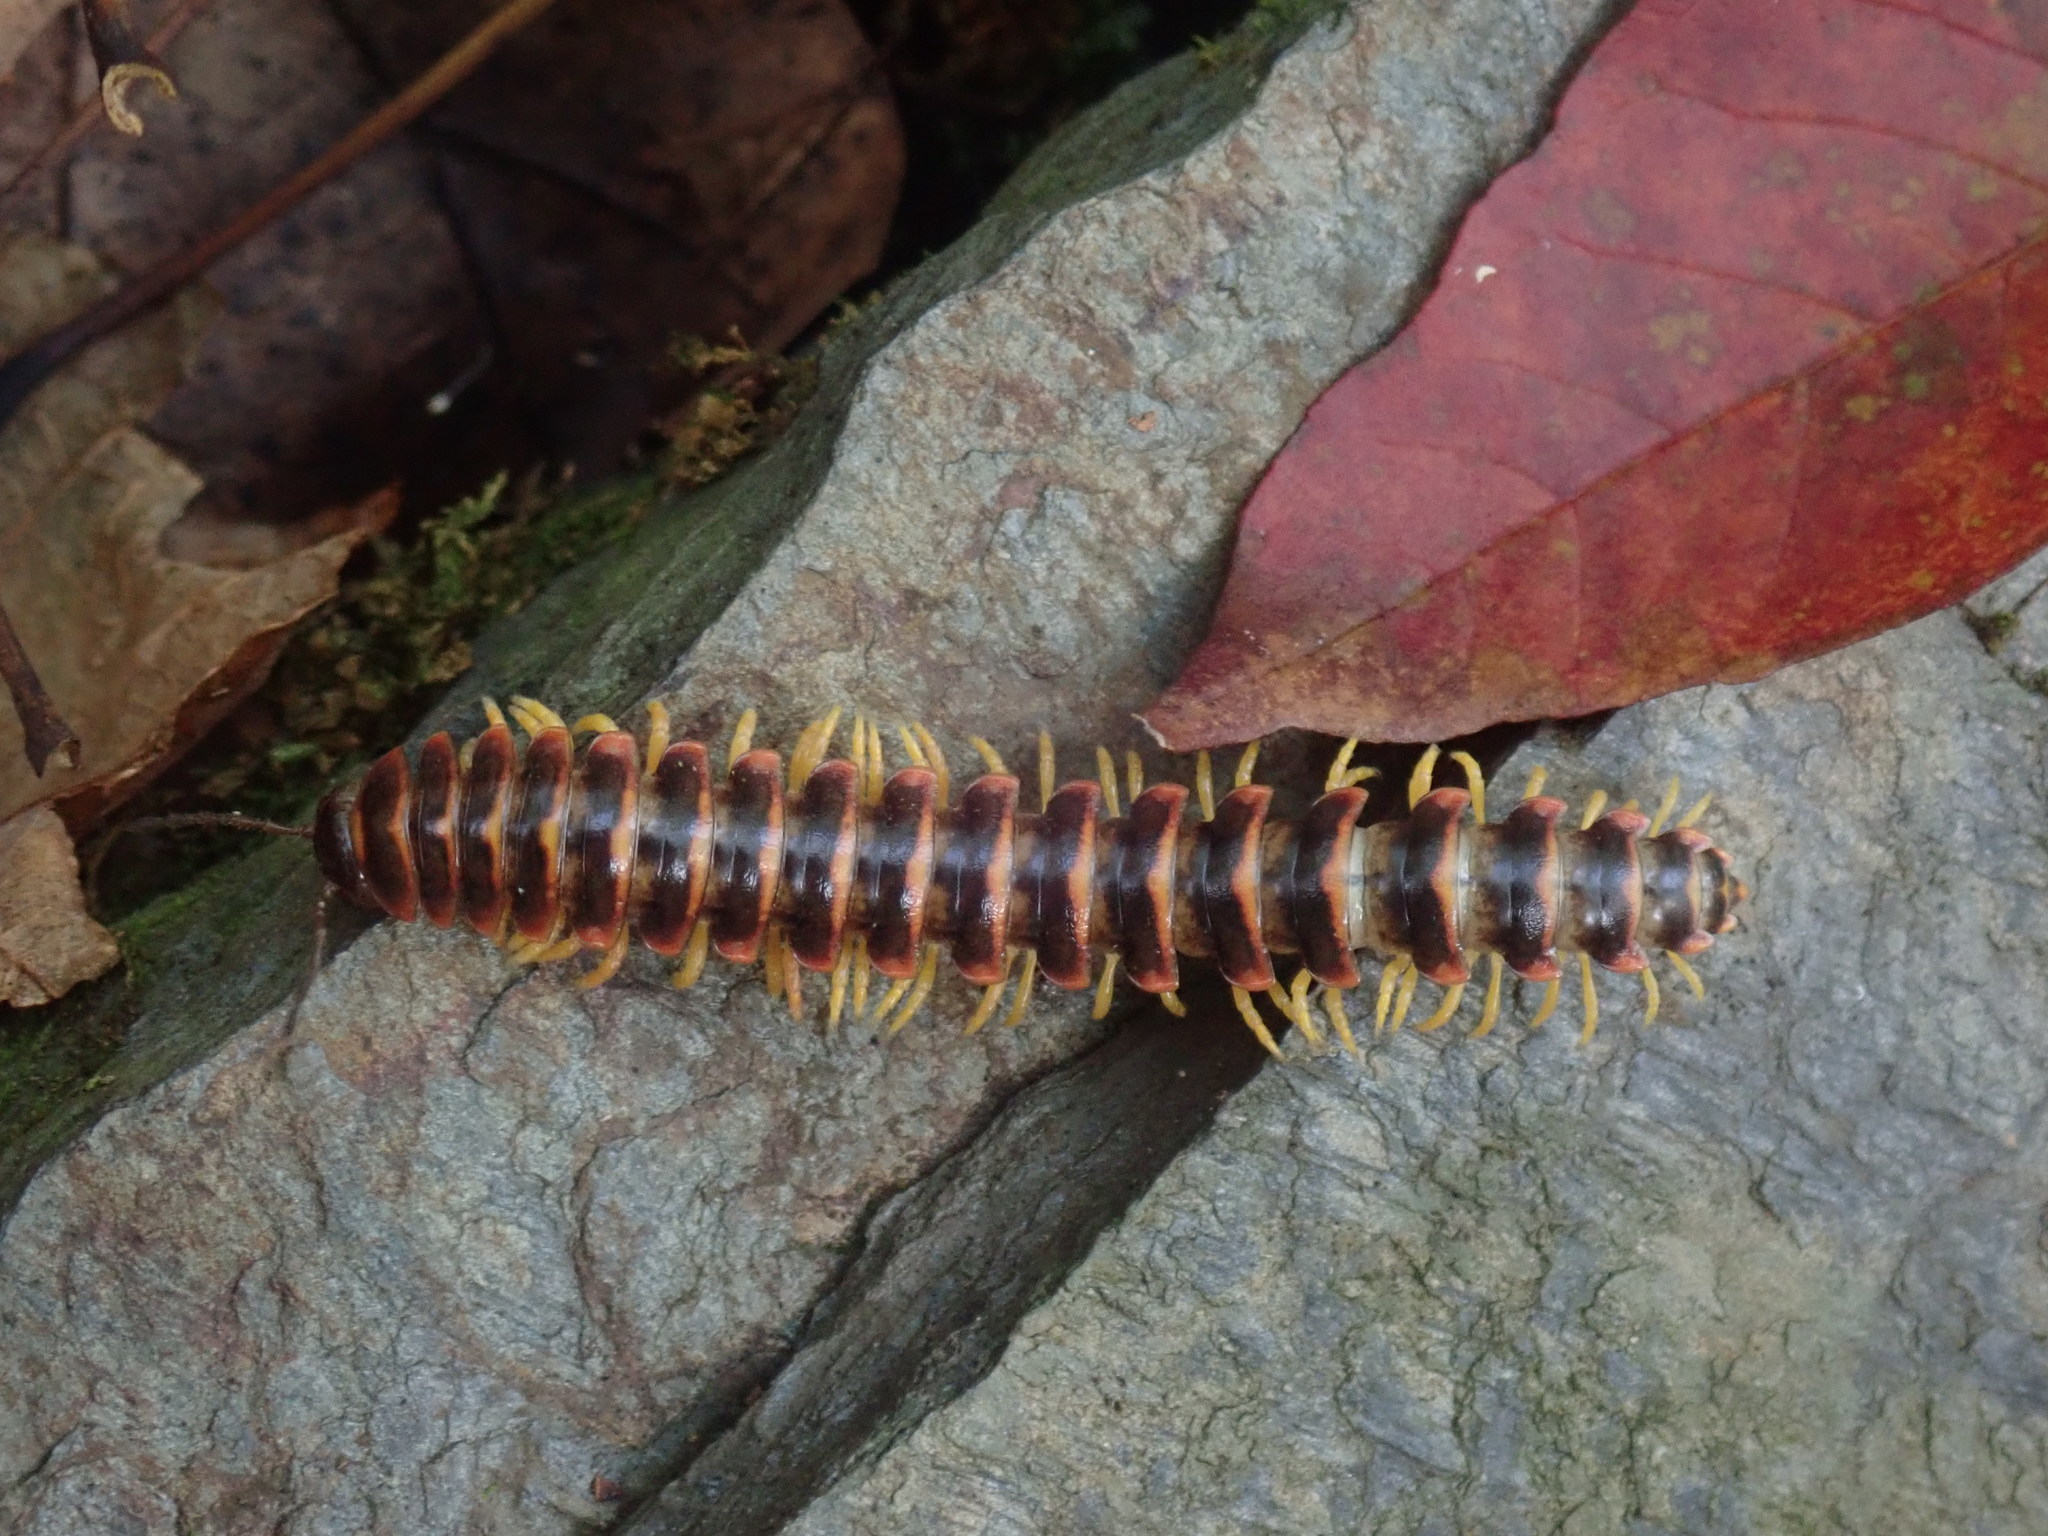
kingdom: Animalia
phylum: Arthropoda
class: Diplopoda
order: Polydesmida
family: Xystodesmidae
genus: Apheloria
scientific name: Apheloria virginiensis
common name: Black-and-gold flat millipede
